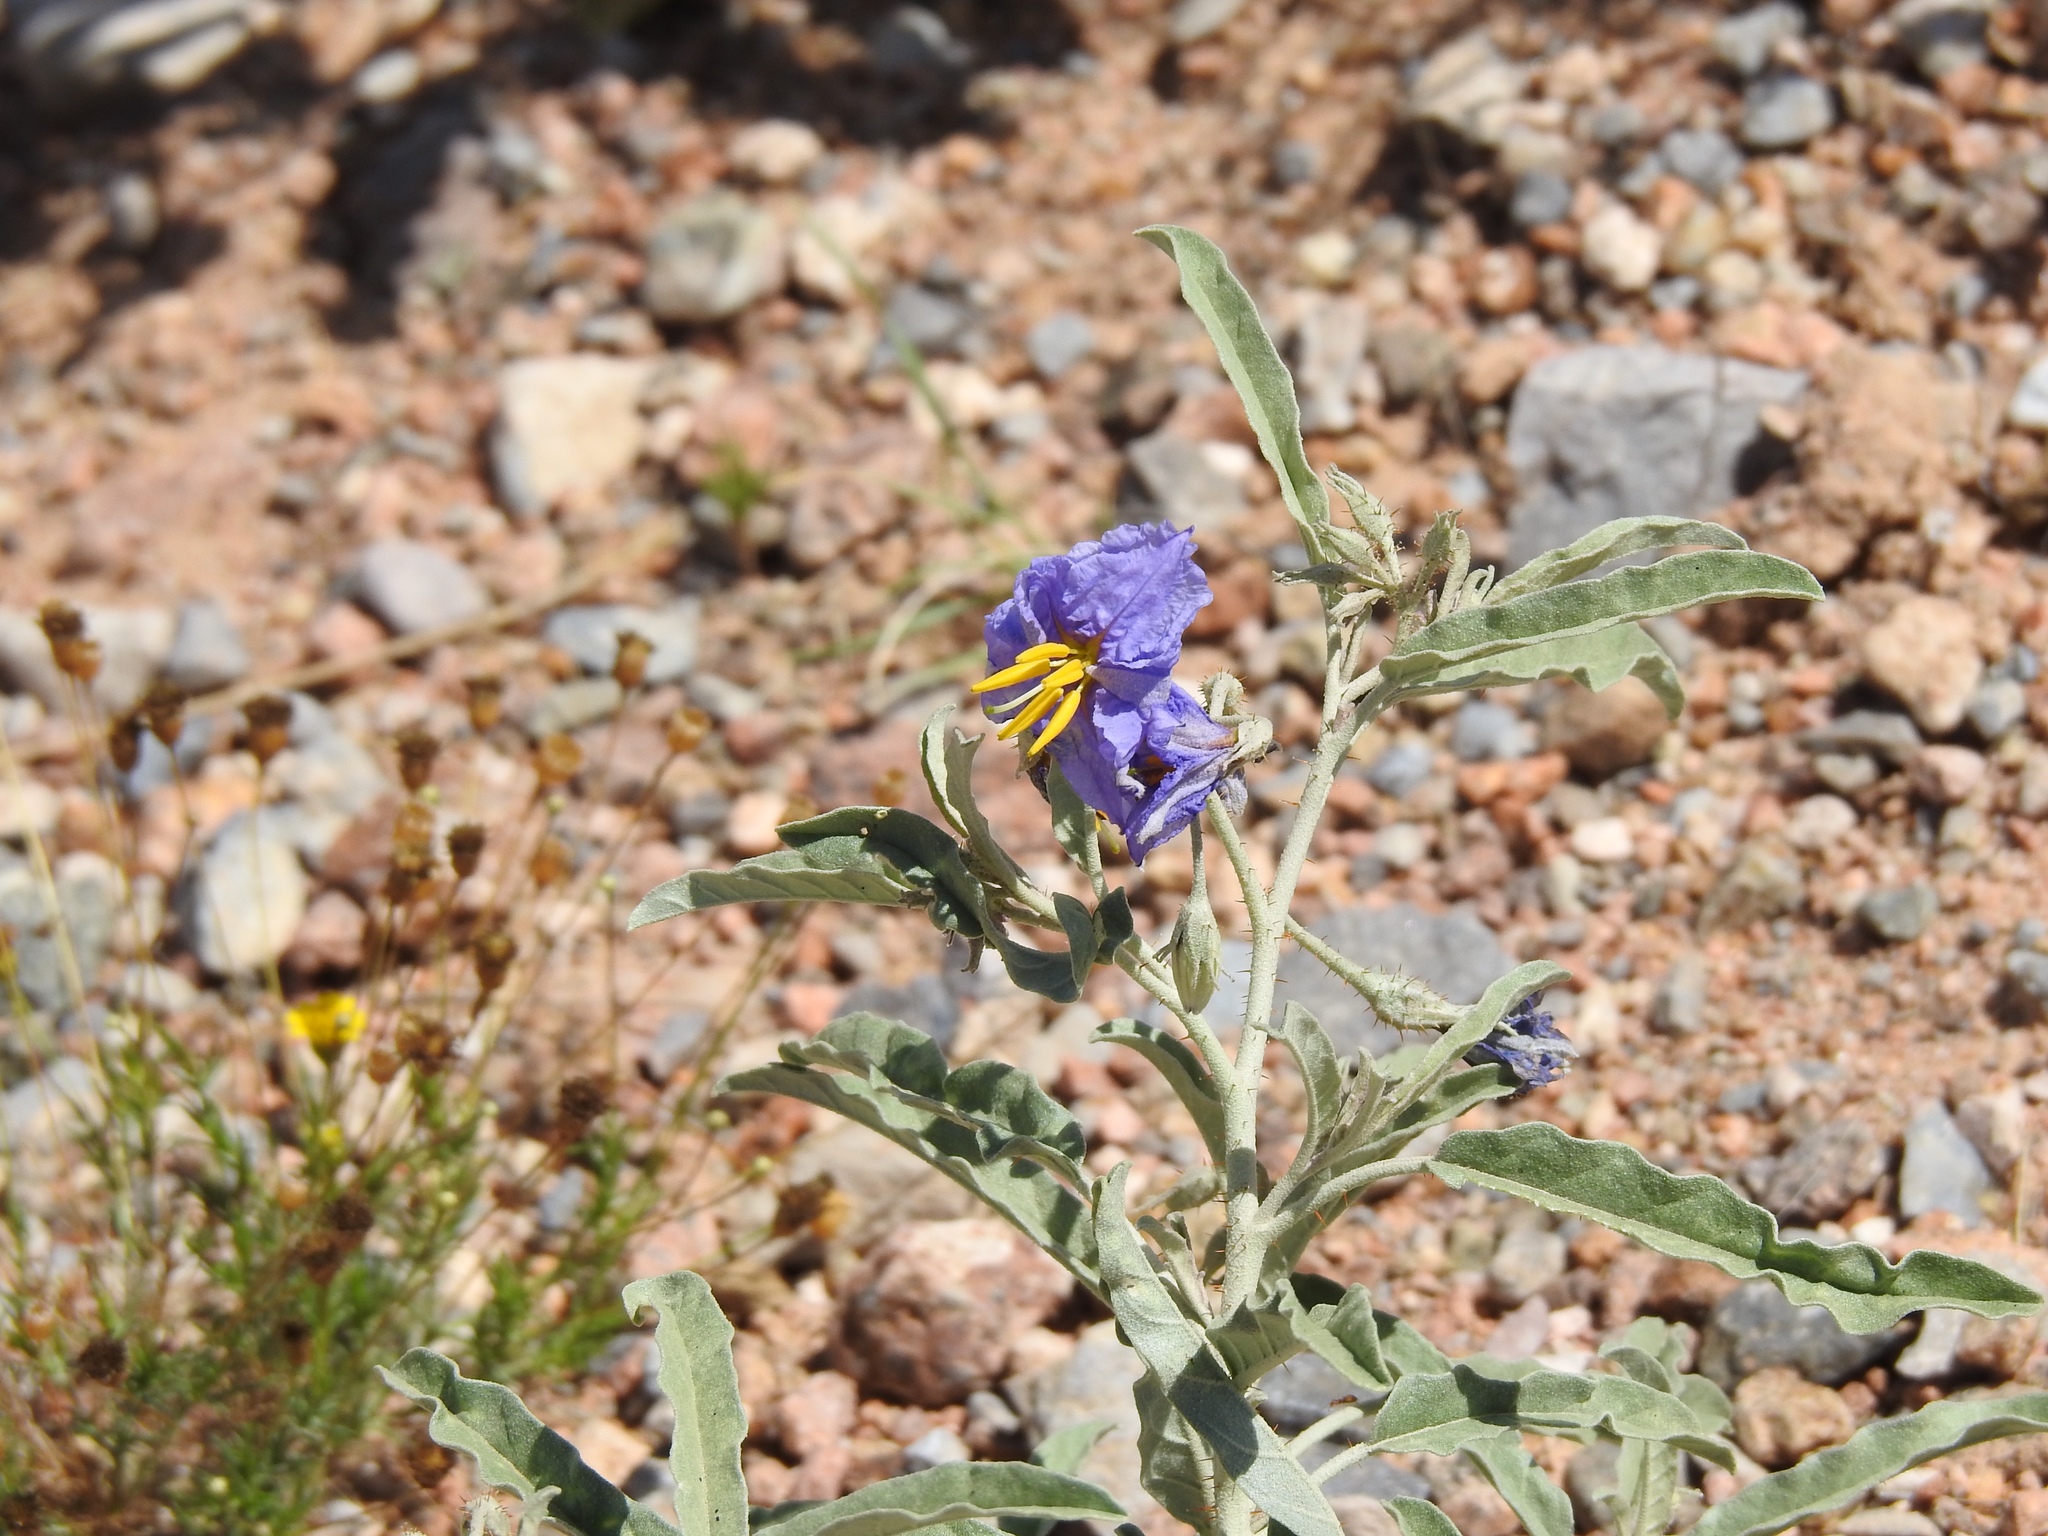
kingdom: Plantae
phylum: Tracheophyta
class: Magnoliopsida
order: Solanales
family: Solanaceae
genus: Solanum
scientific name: Solanum elaeagnifolium
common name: Silverleaf nightshade
